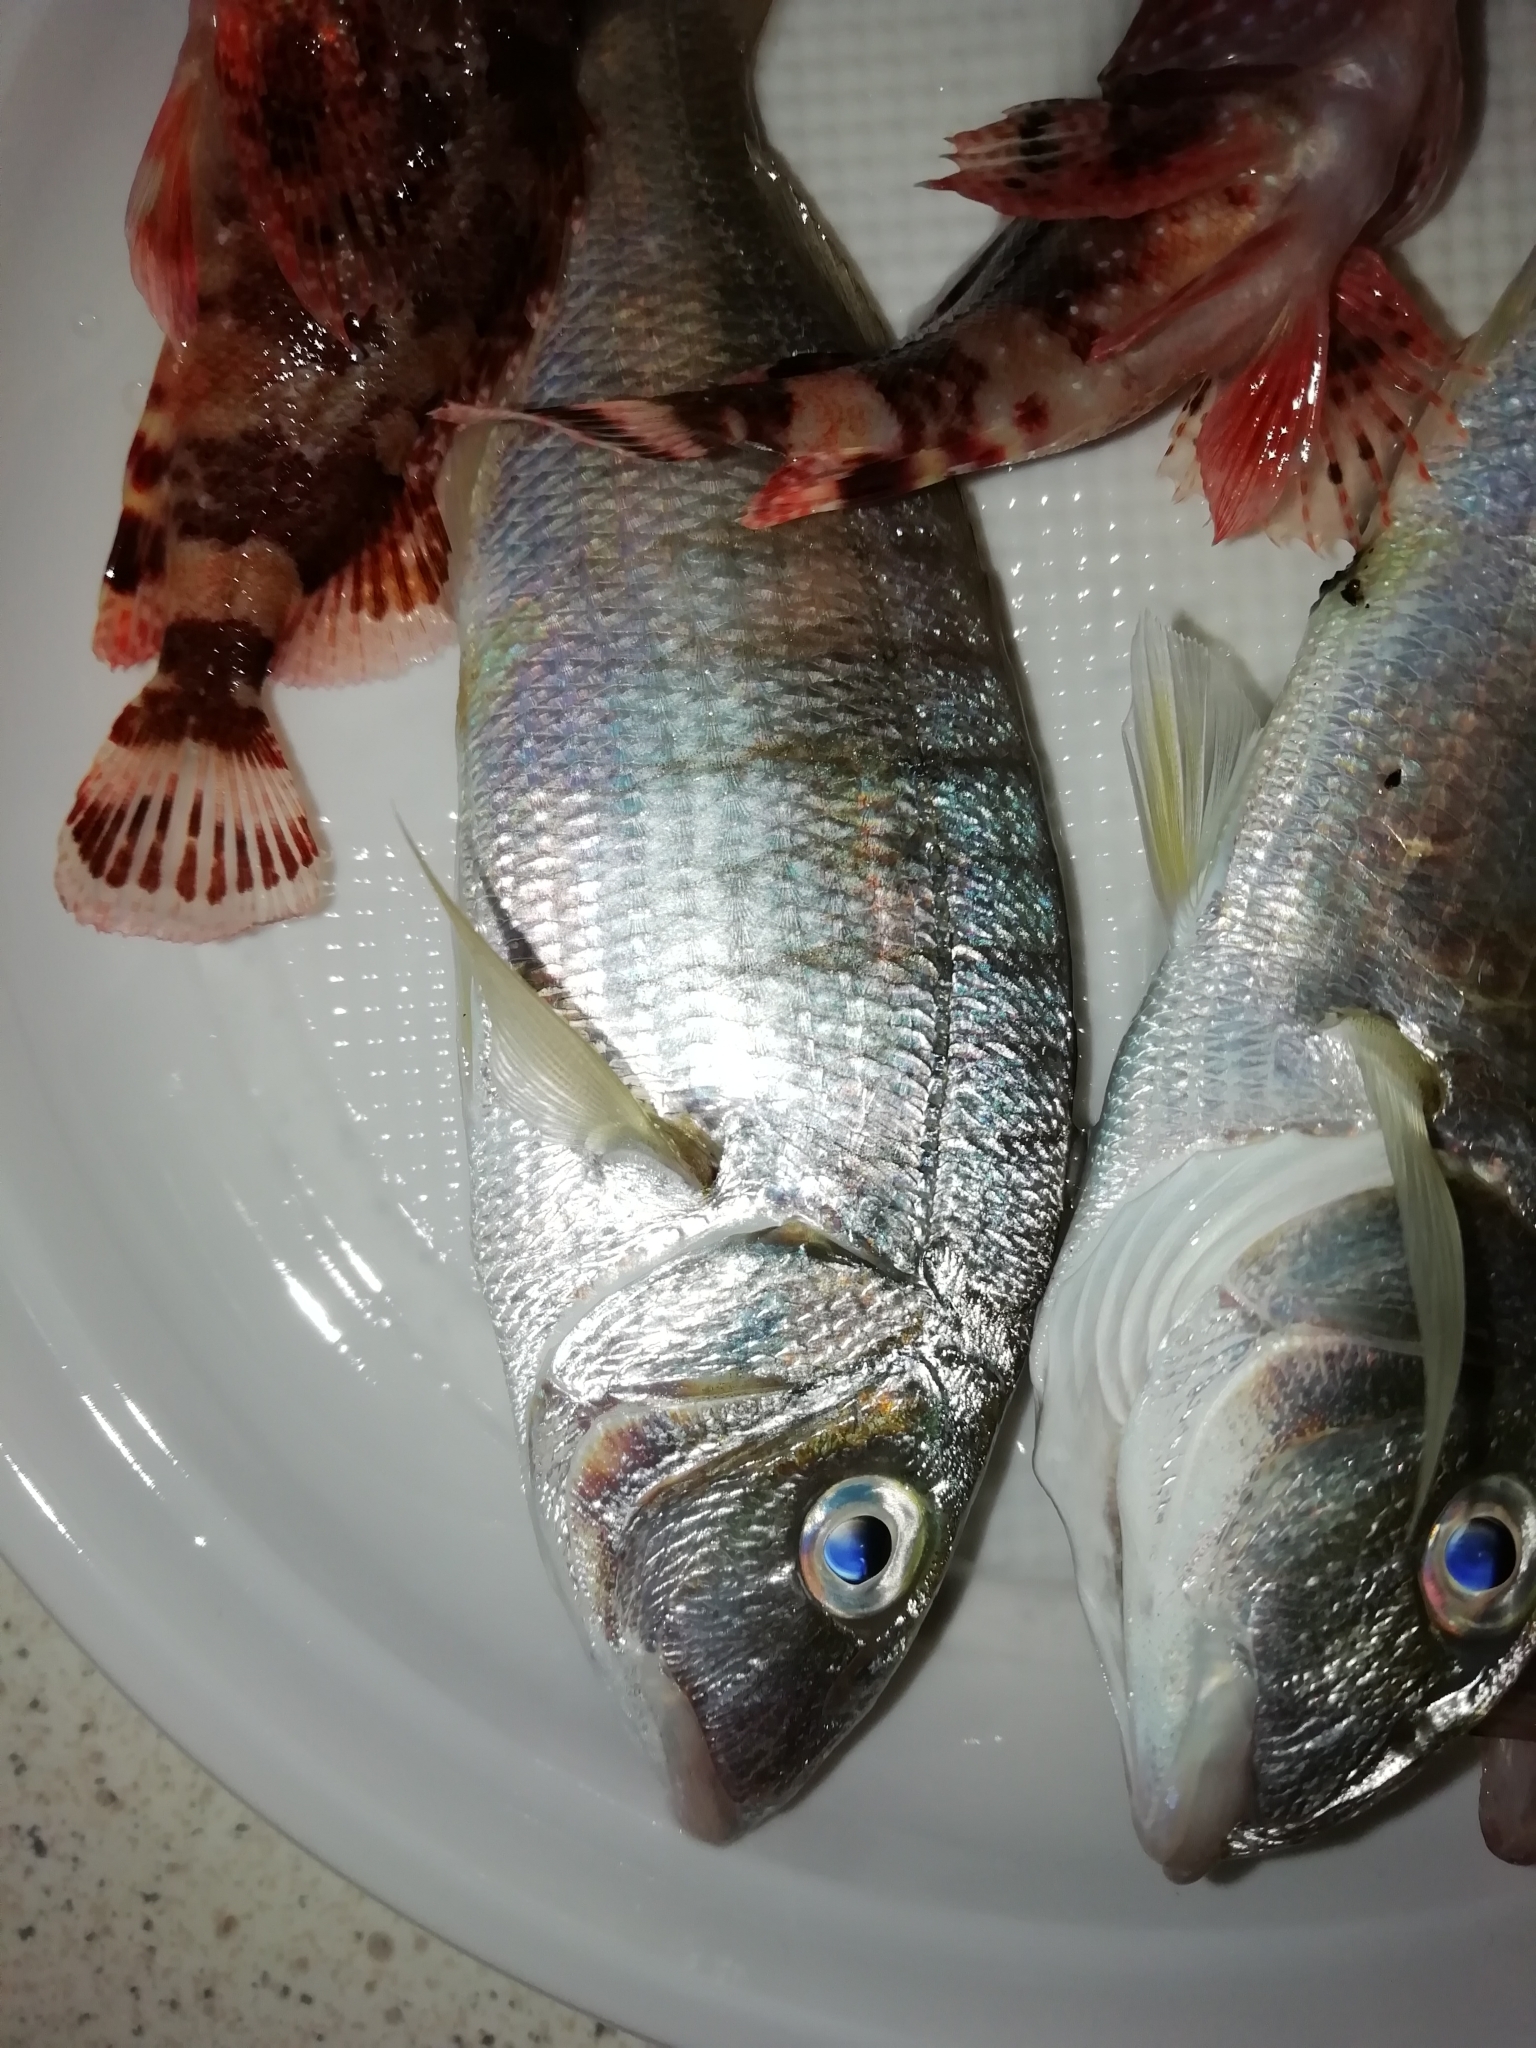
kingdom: Animalia
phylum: Chordata
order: Perciformes
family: Sparidae
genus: Lithognathus
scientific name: Lithognathus mormyrus
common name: Sand steenbras
